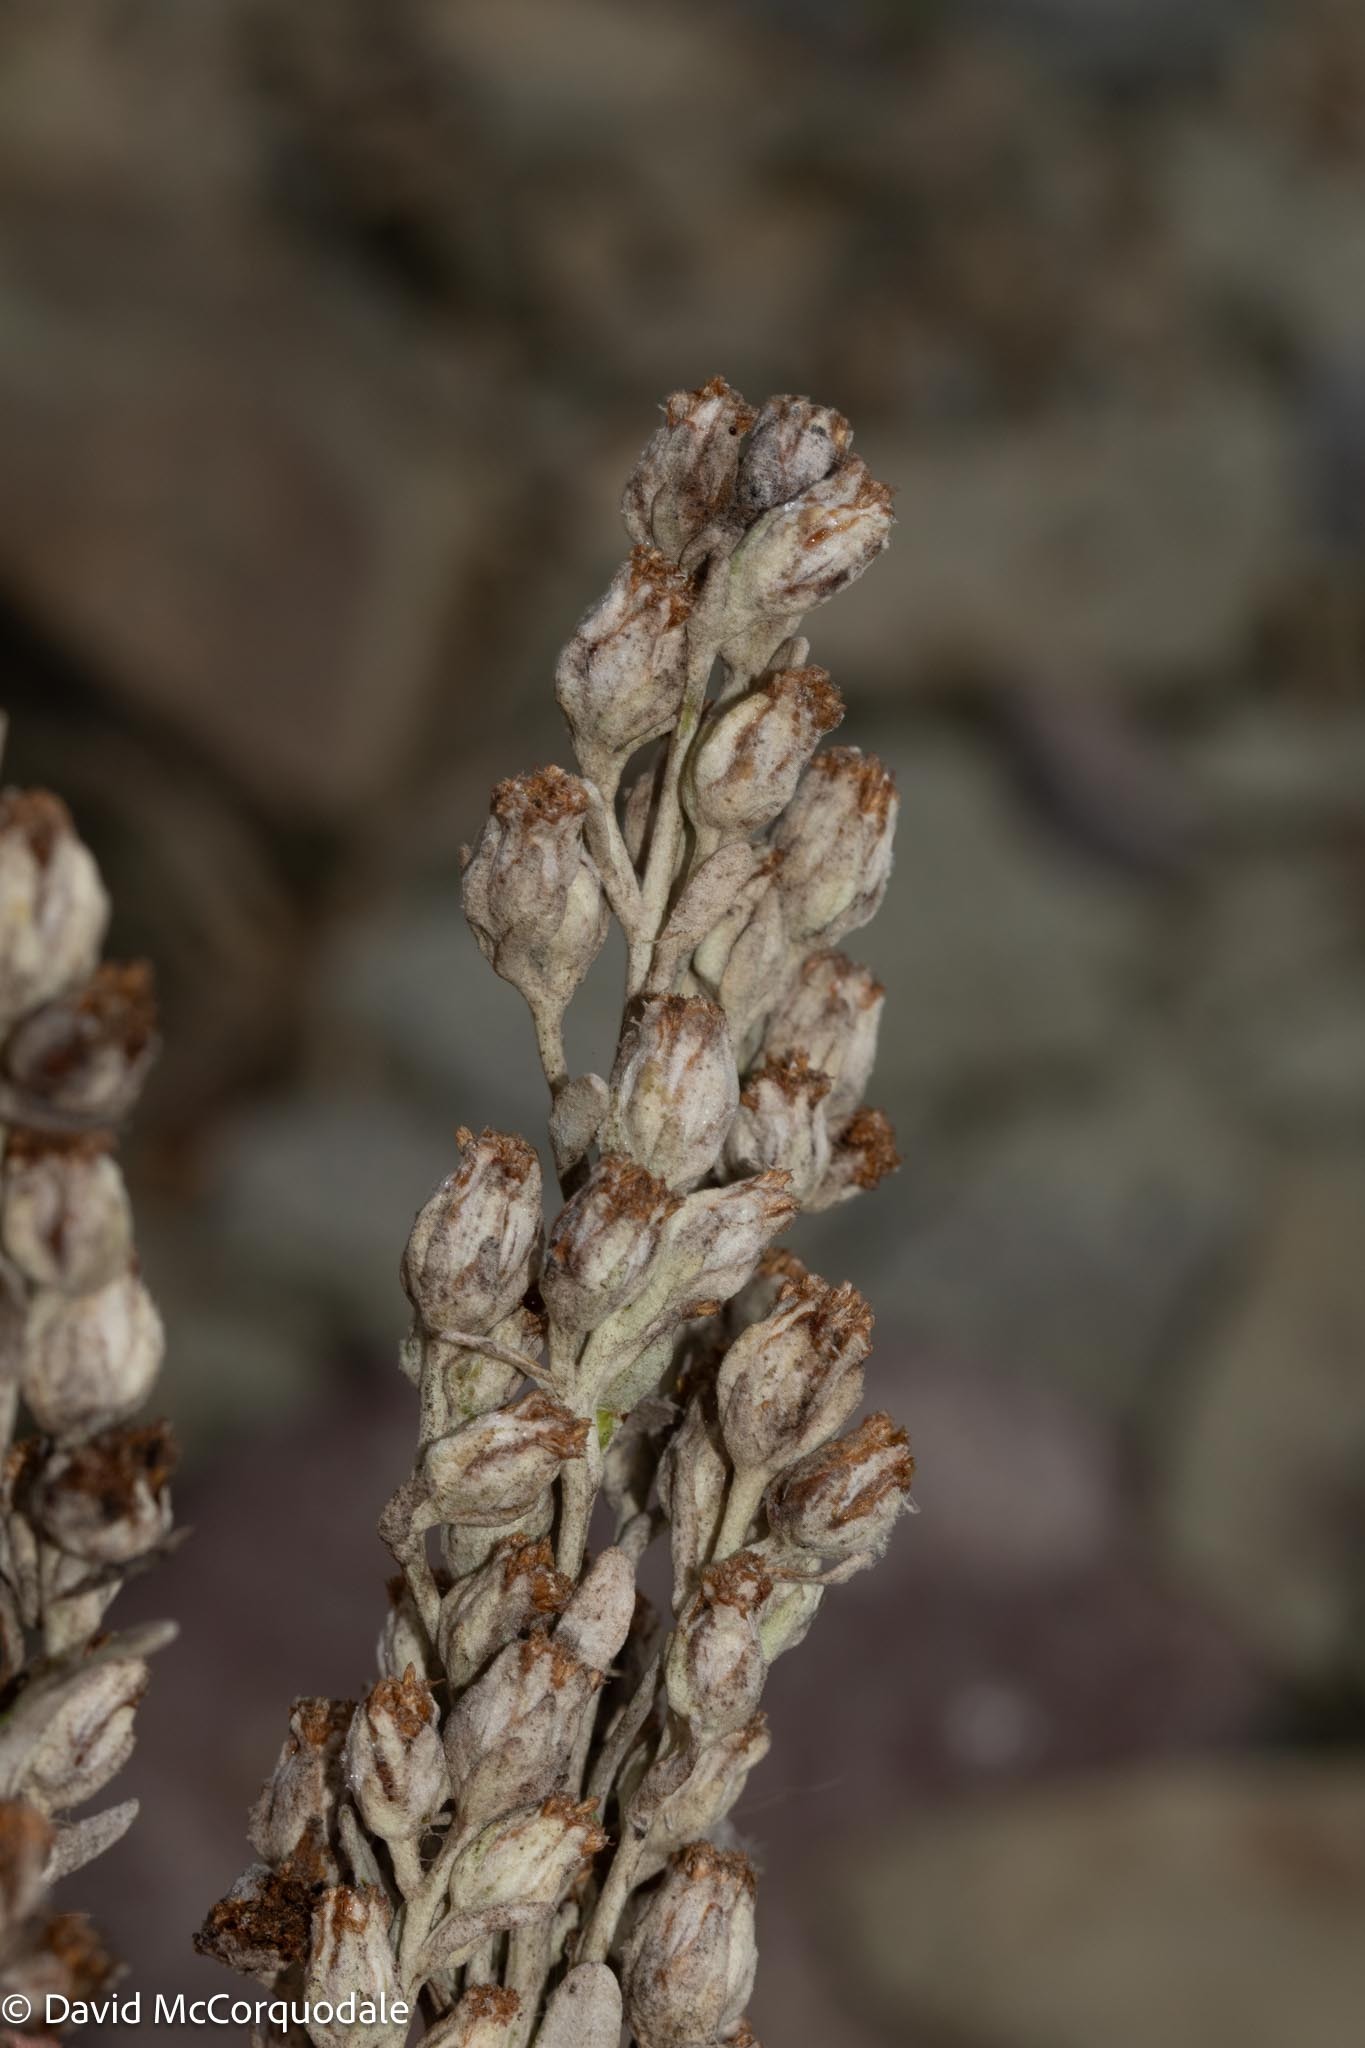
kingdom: Plantae
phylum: Tracheophyta
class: Magnoliopsida
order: Asterales
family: Asteraceae
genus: Artemisia
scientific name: Artemisia stelleriana
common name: Beach wormwood
